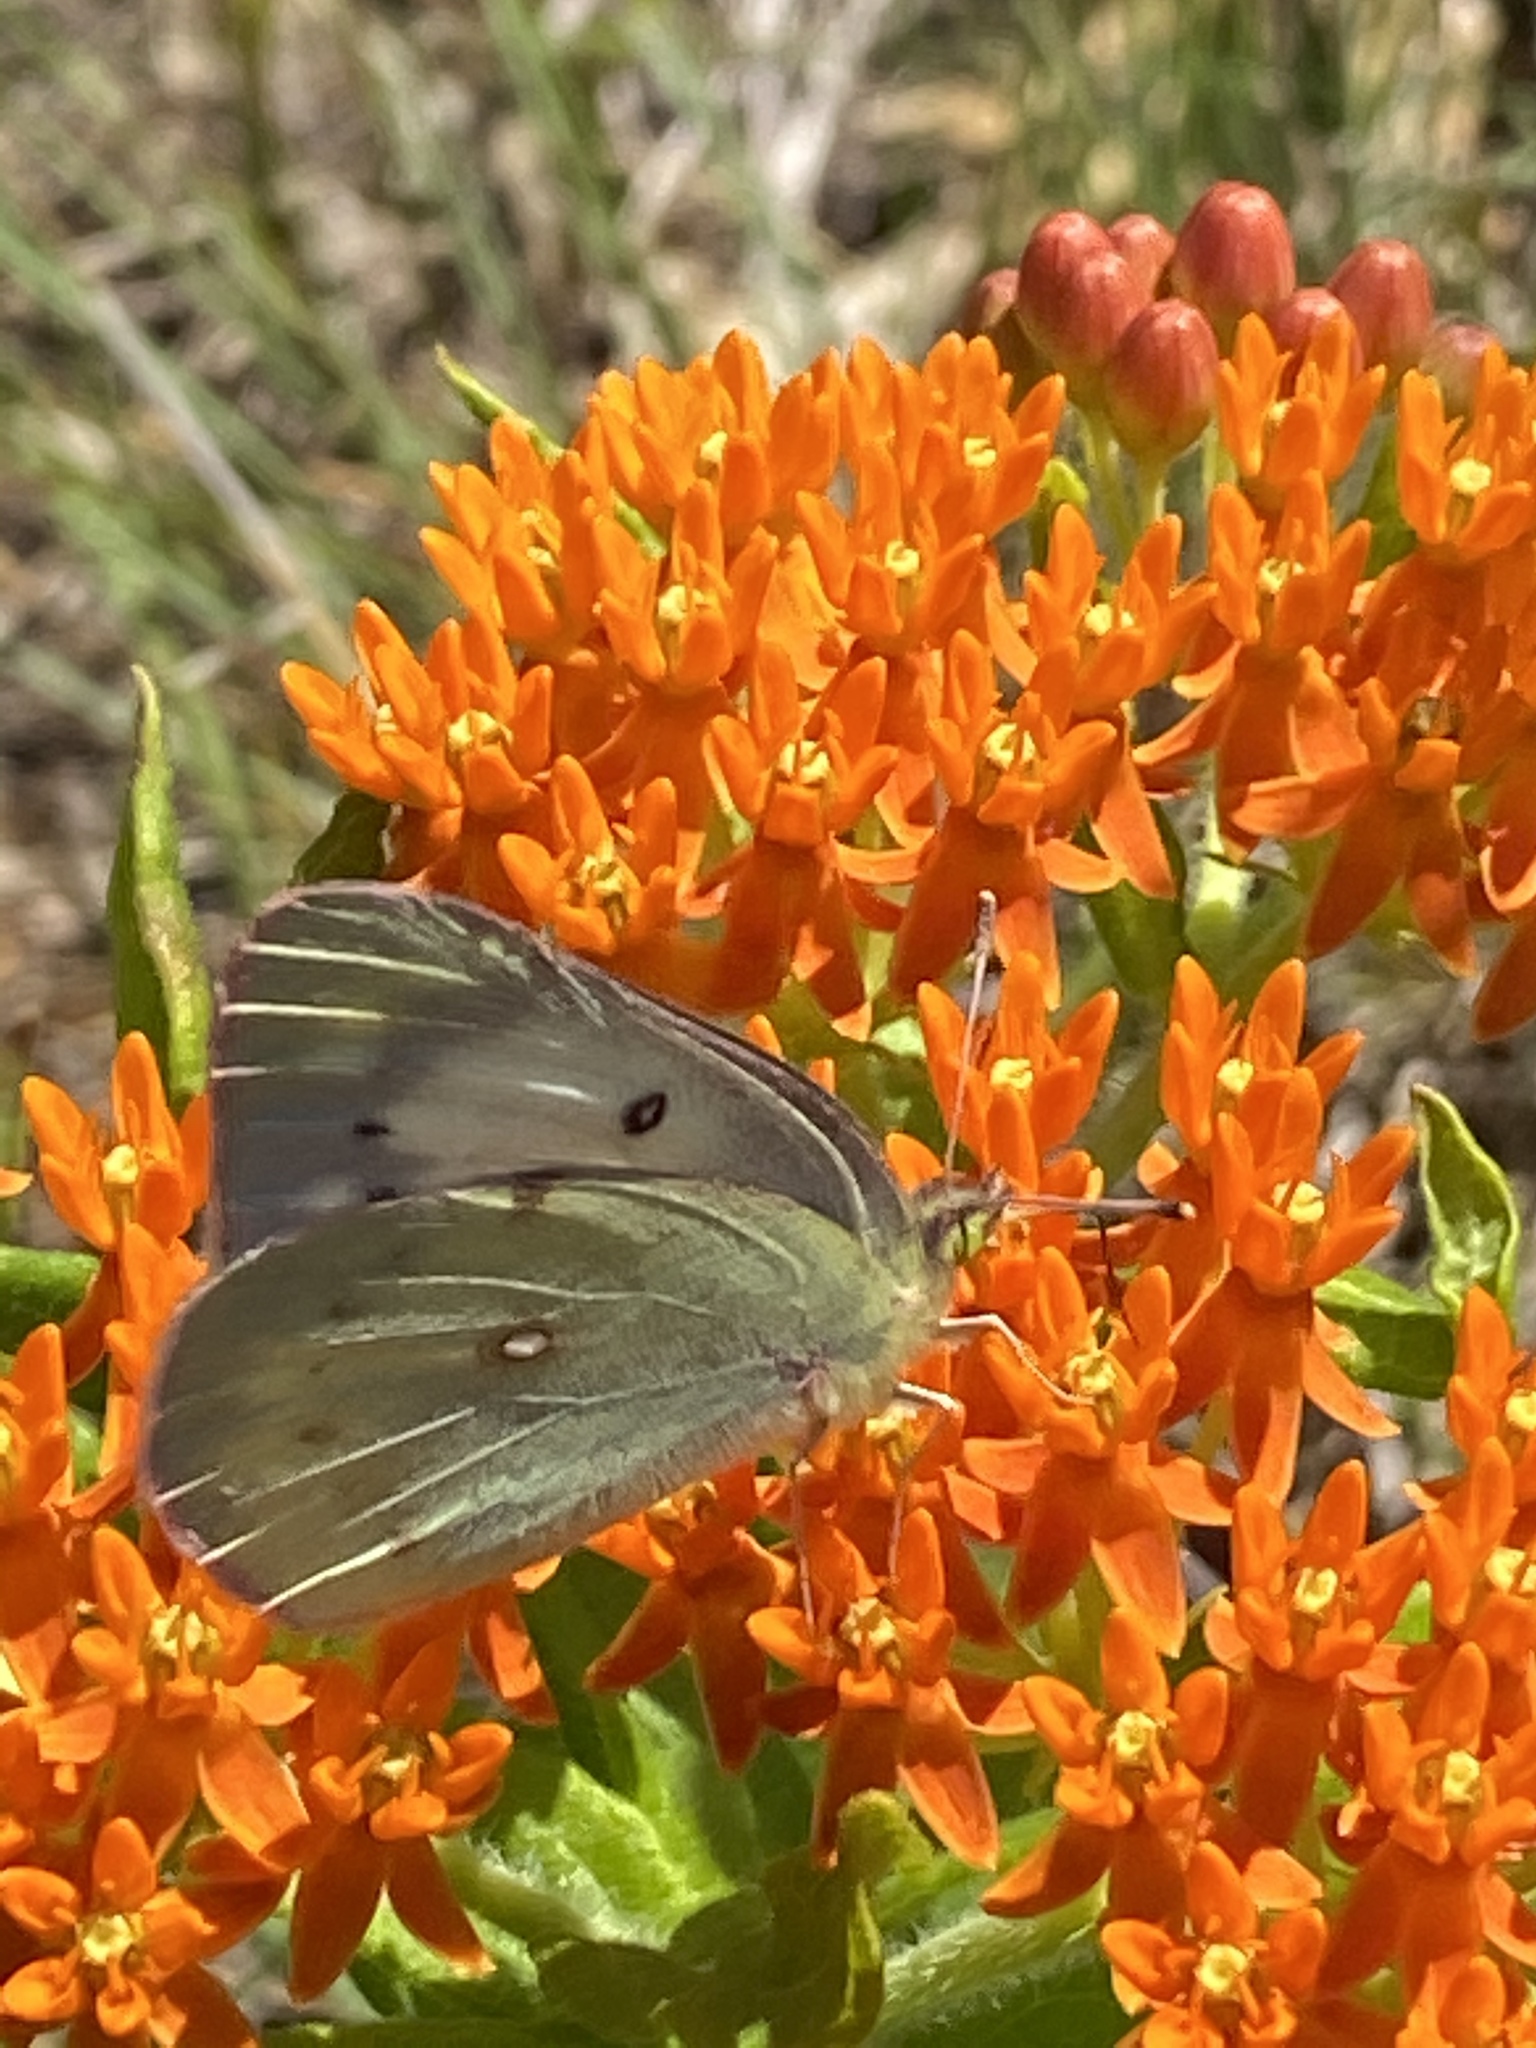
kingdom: Animalia
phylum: Arthropoda
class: Insecta
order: Lepidoptera
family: Pieridae
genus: Colias
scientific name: Colias philodice
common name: Clouded sulphur
